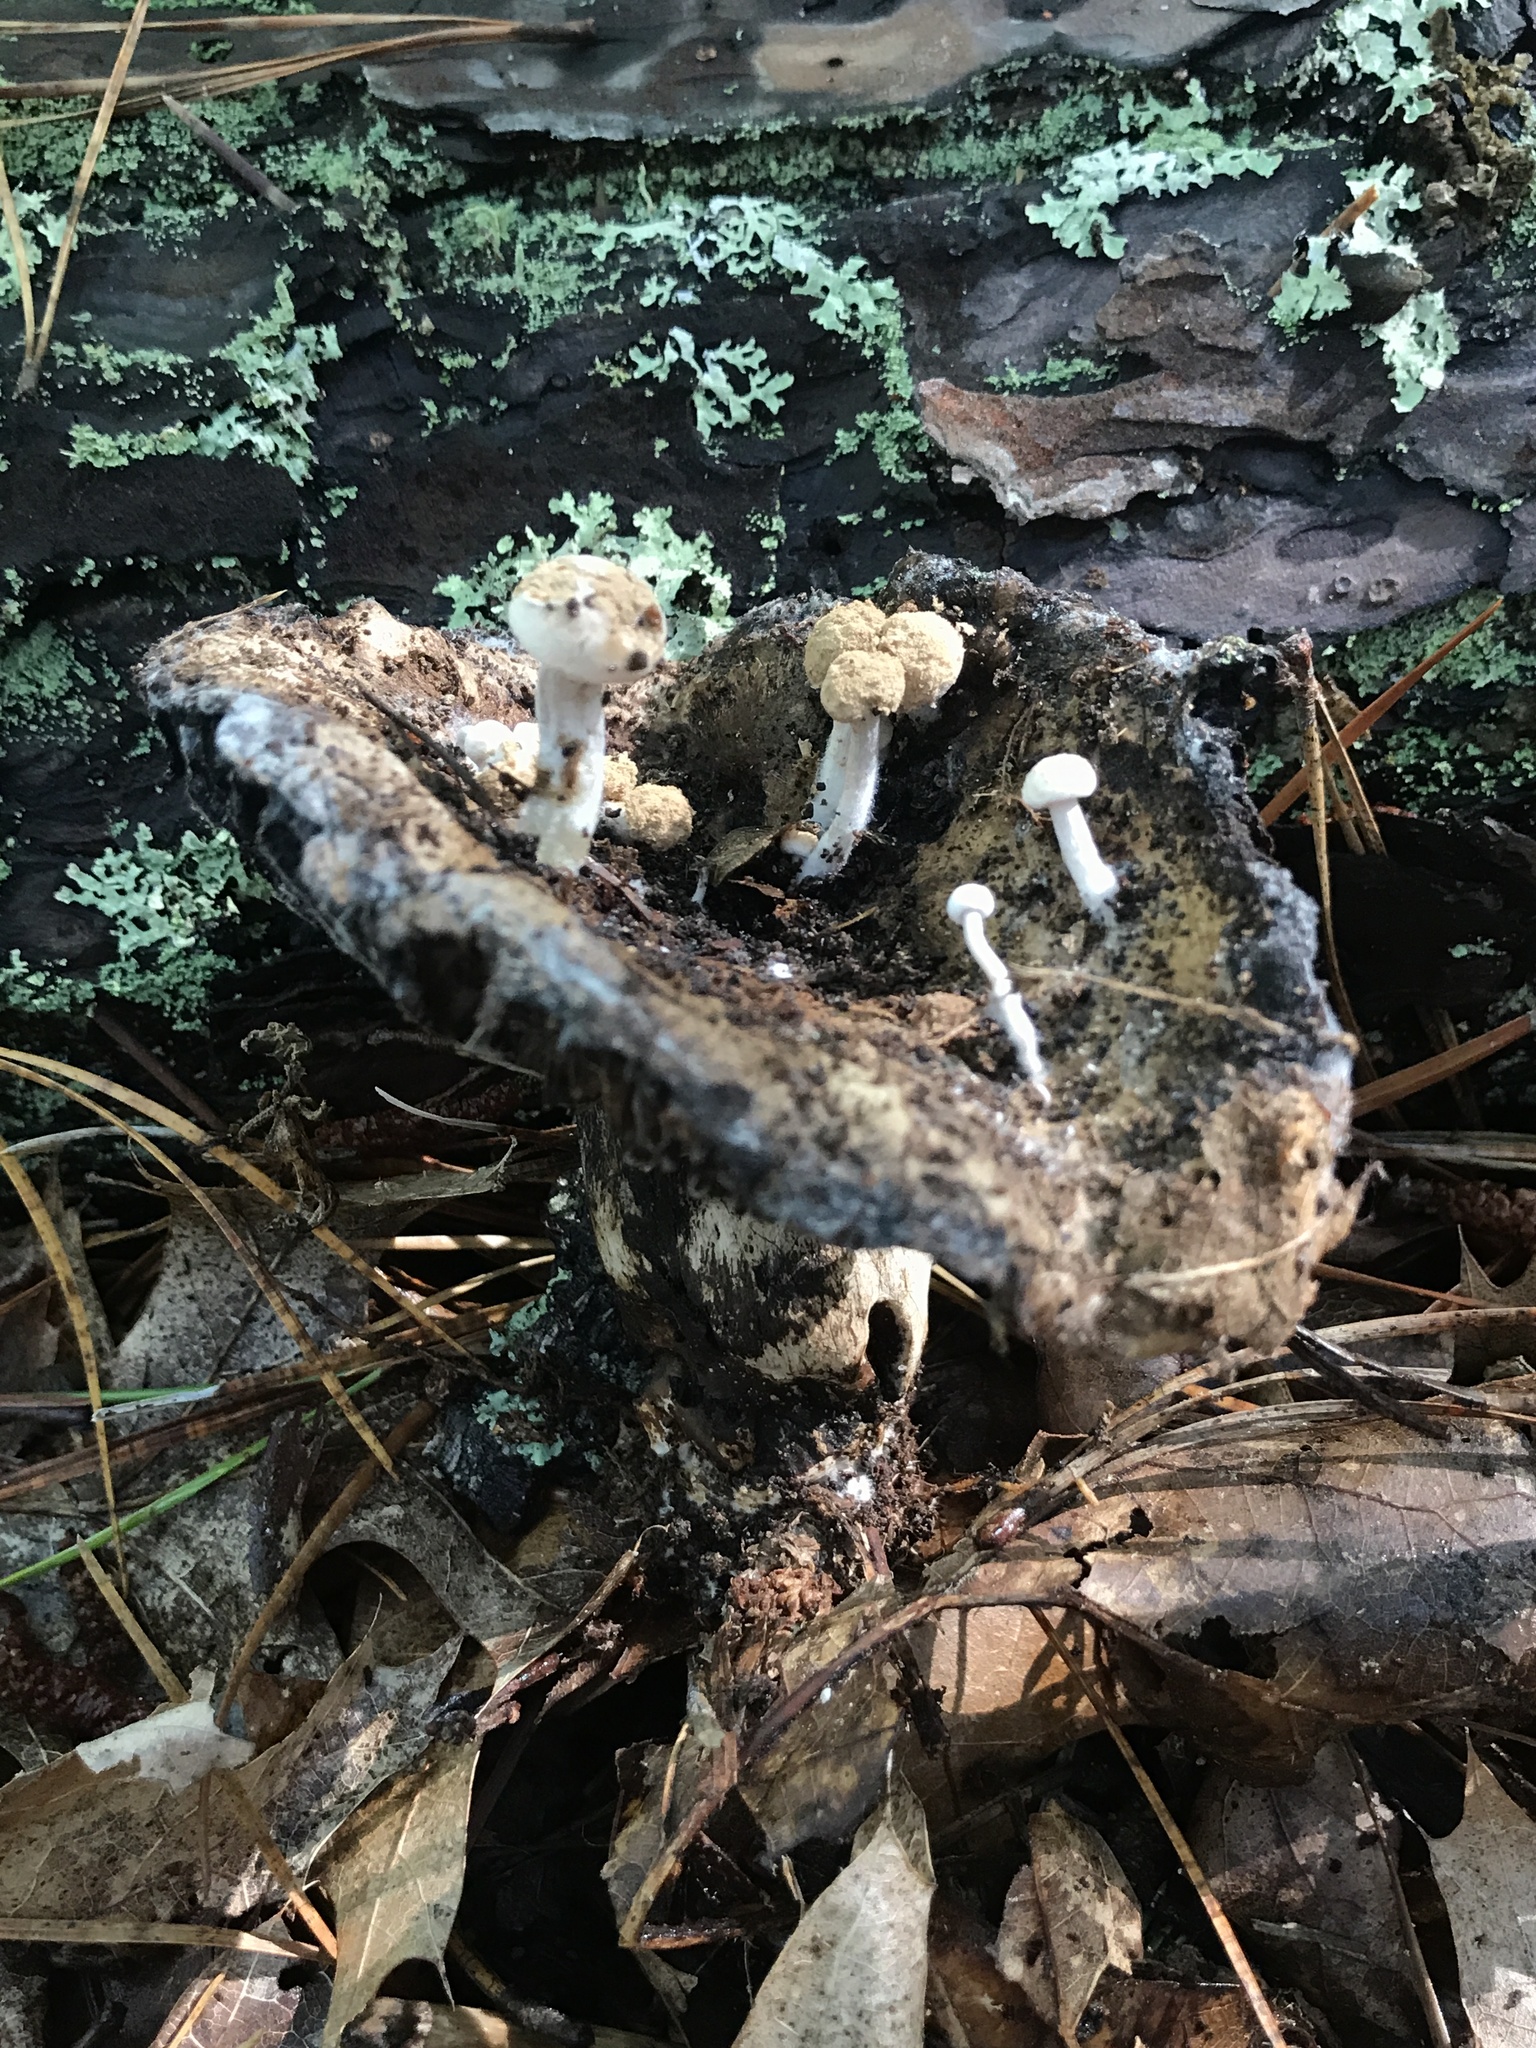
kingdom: Fungi
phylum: Basidiomycota
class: Agaricomycetes
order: Agaricales
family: Lyophyllaceae
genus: Asterophora
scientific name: Asterophora lycoperdoides
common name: Pick-a-back toadstool
